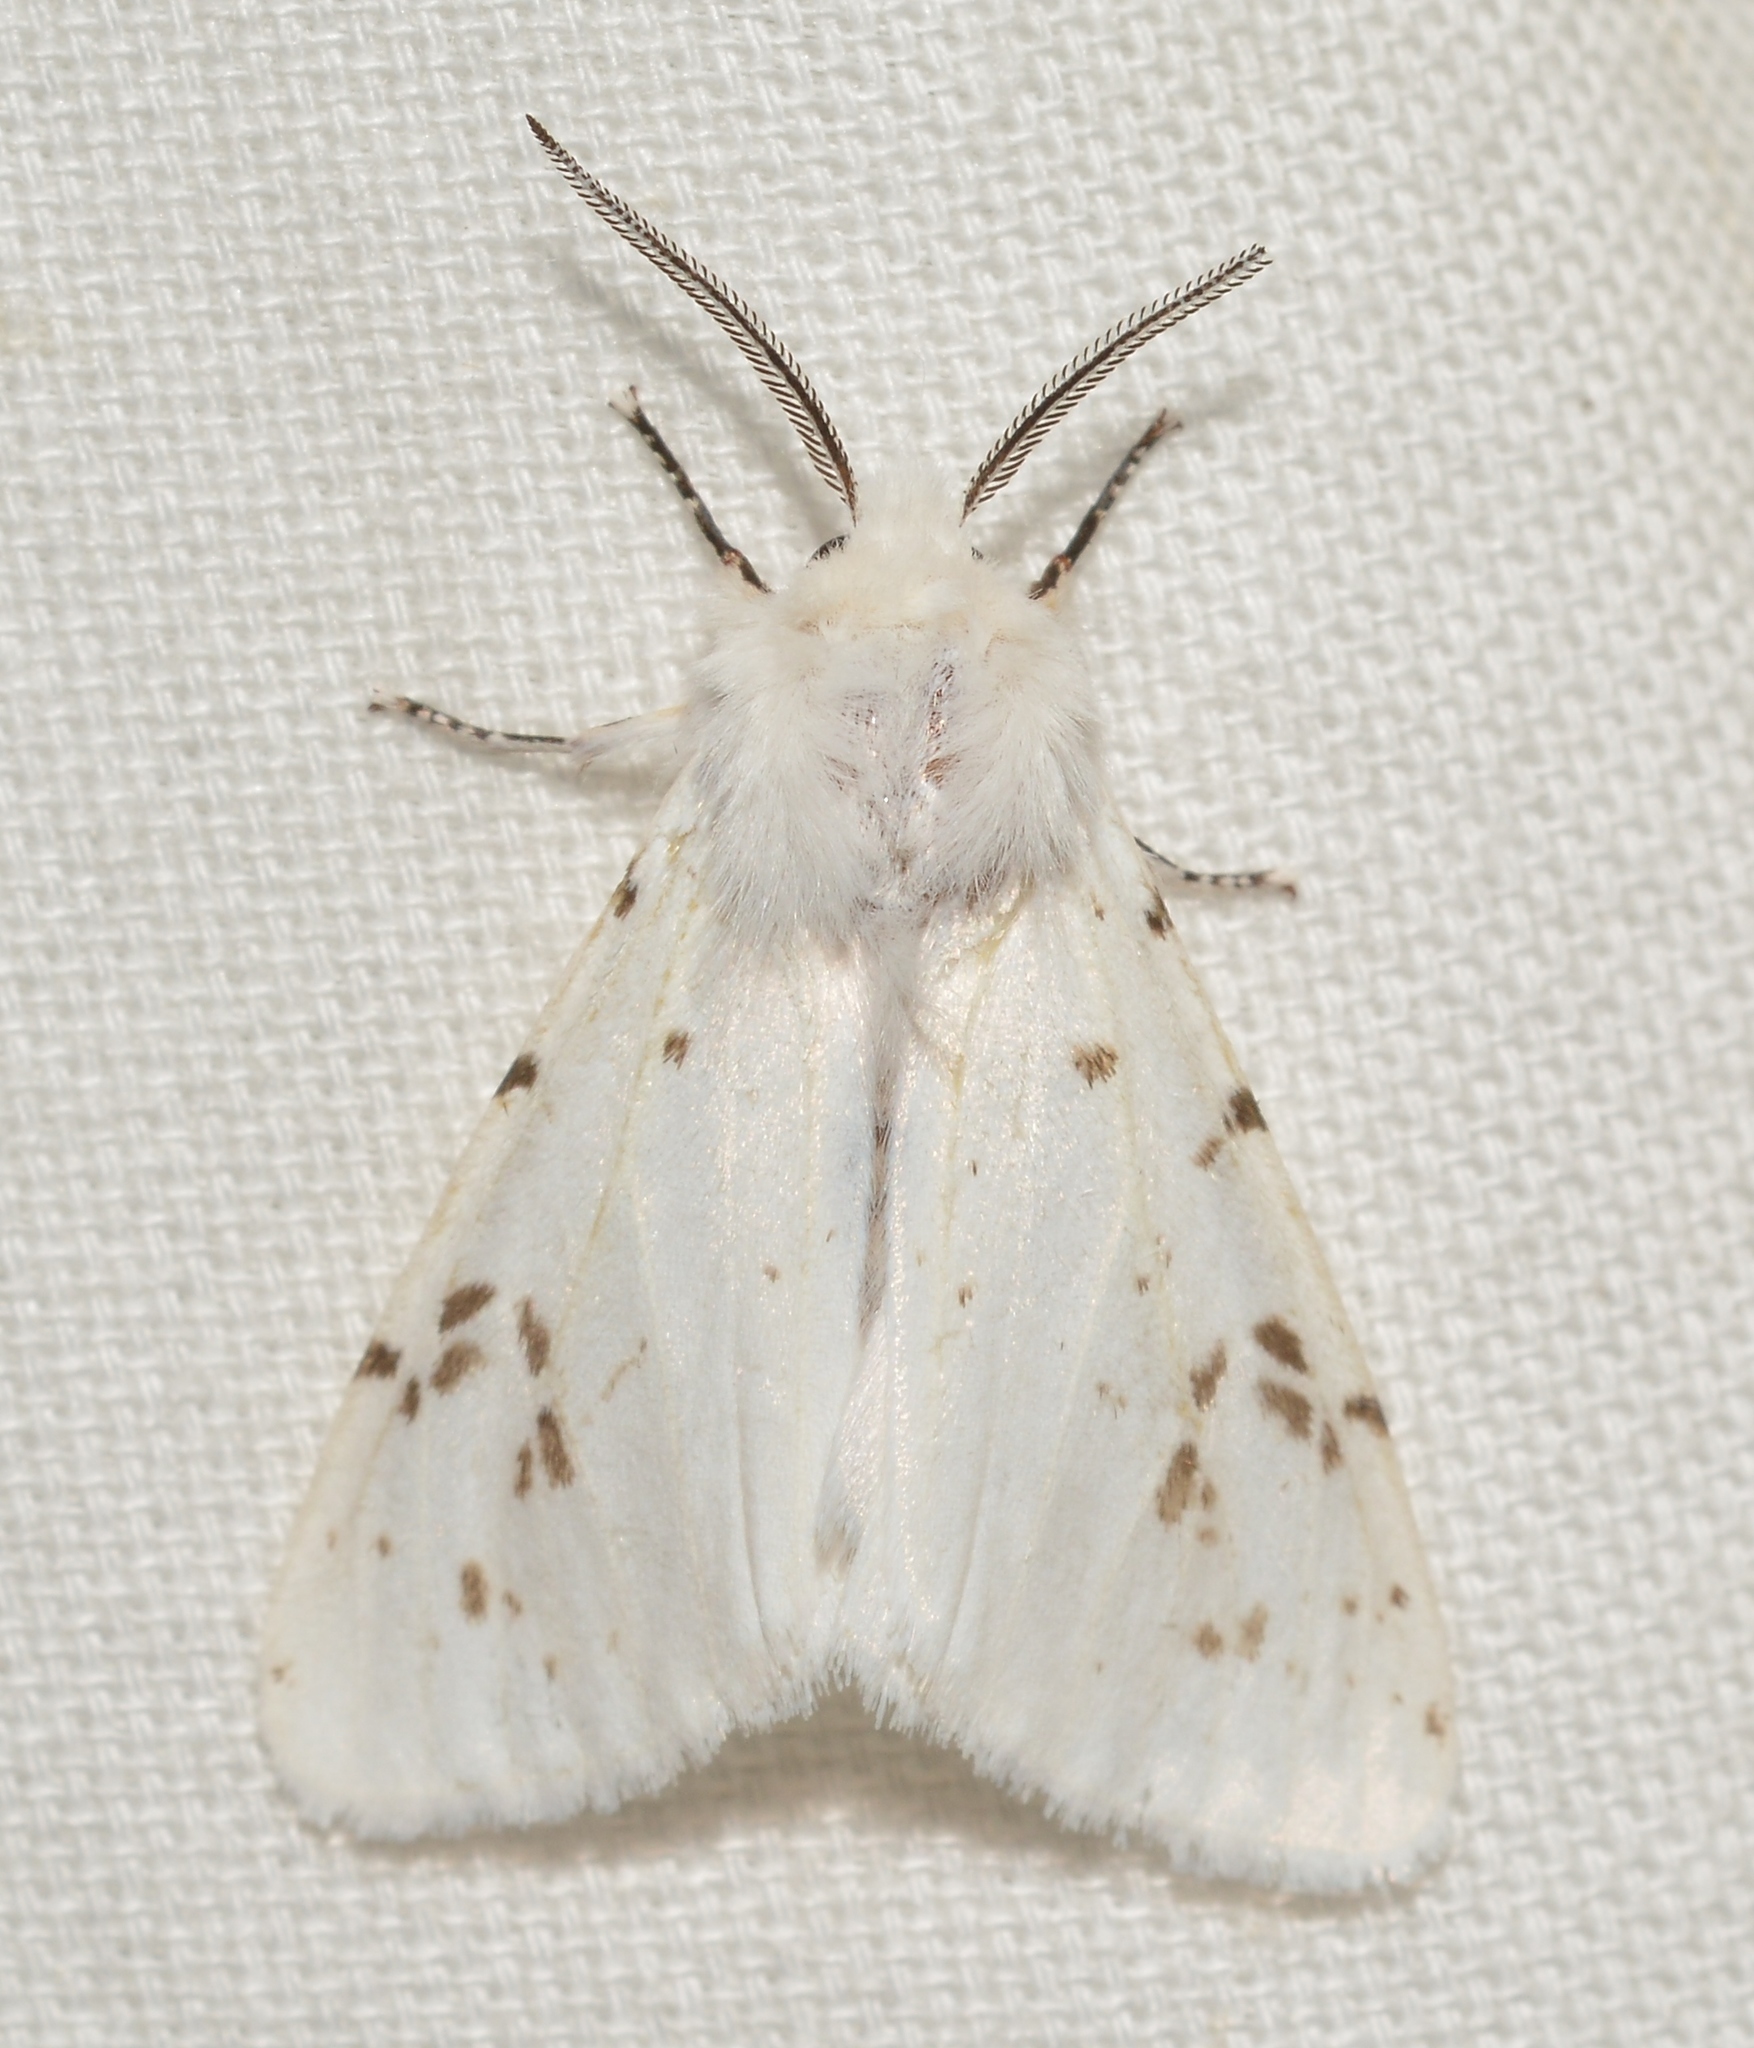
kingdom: Animalia
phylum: Arthropoda
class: Insecta
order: Lepidoptera
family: Erebidae
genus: Hyphantria
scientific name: Hyphantria cunea
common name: American white moth
